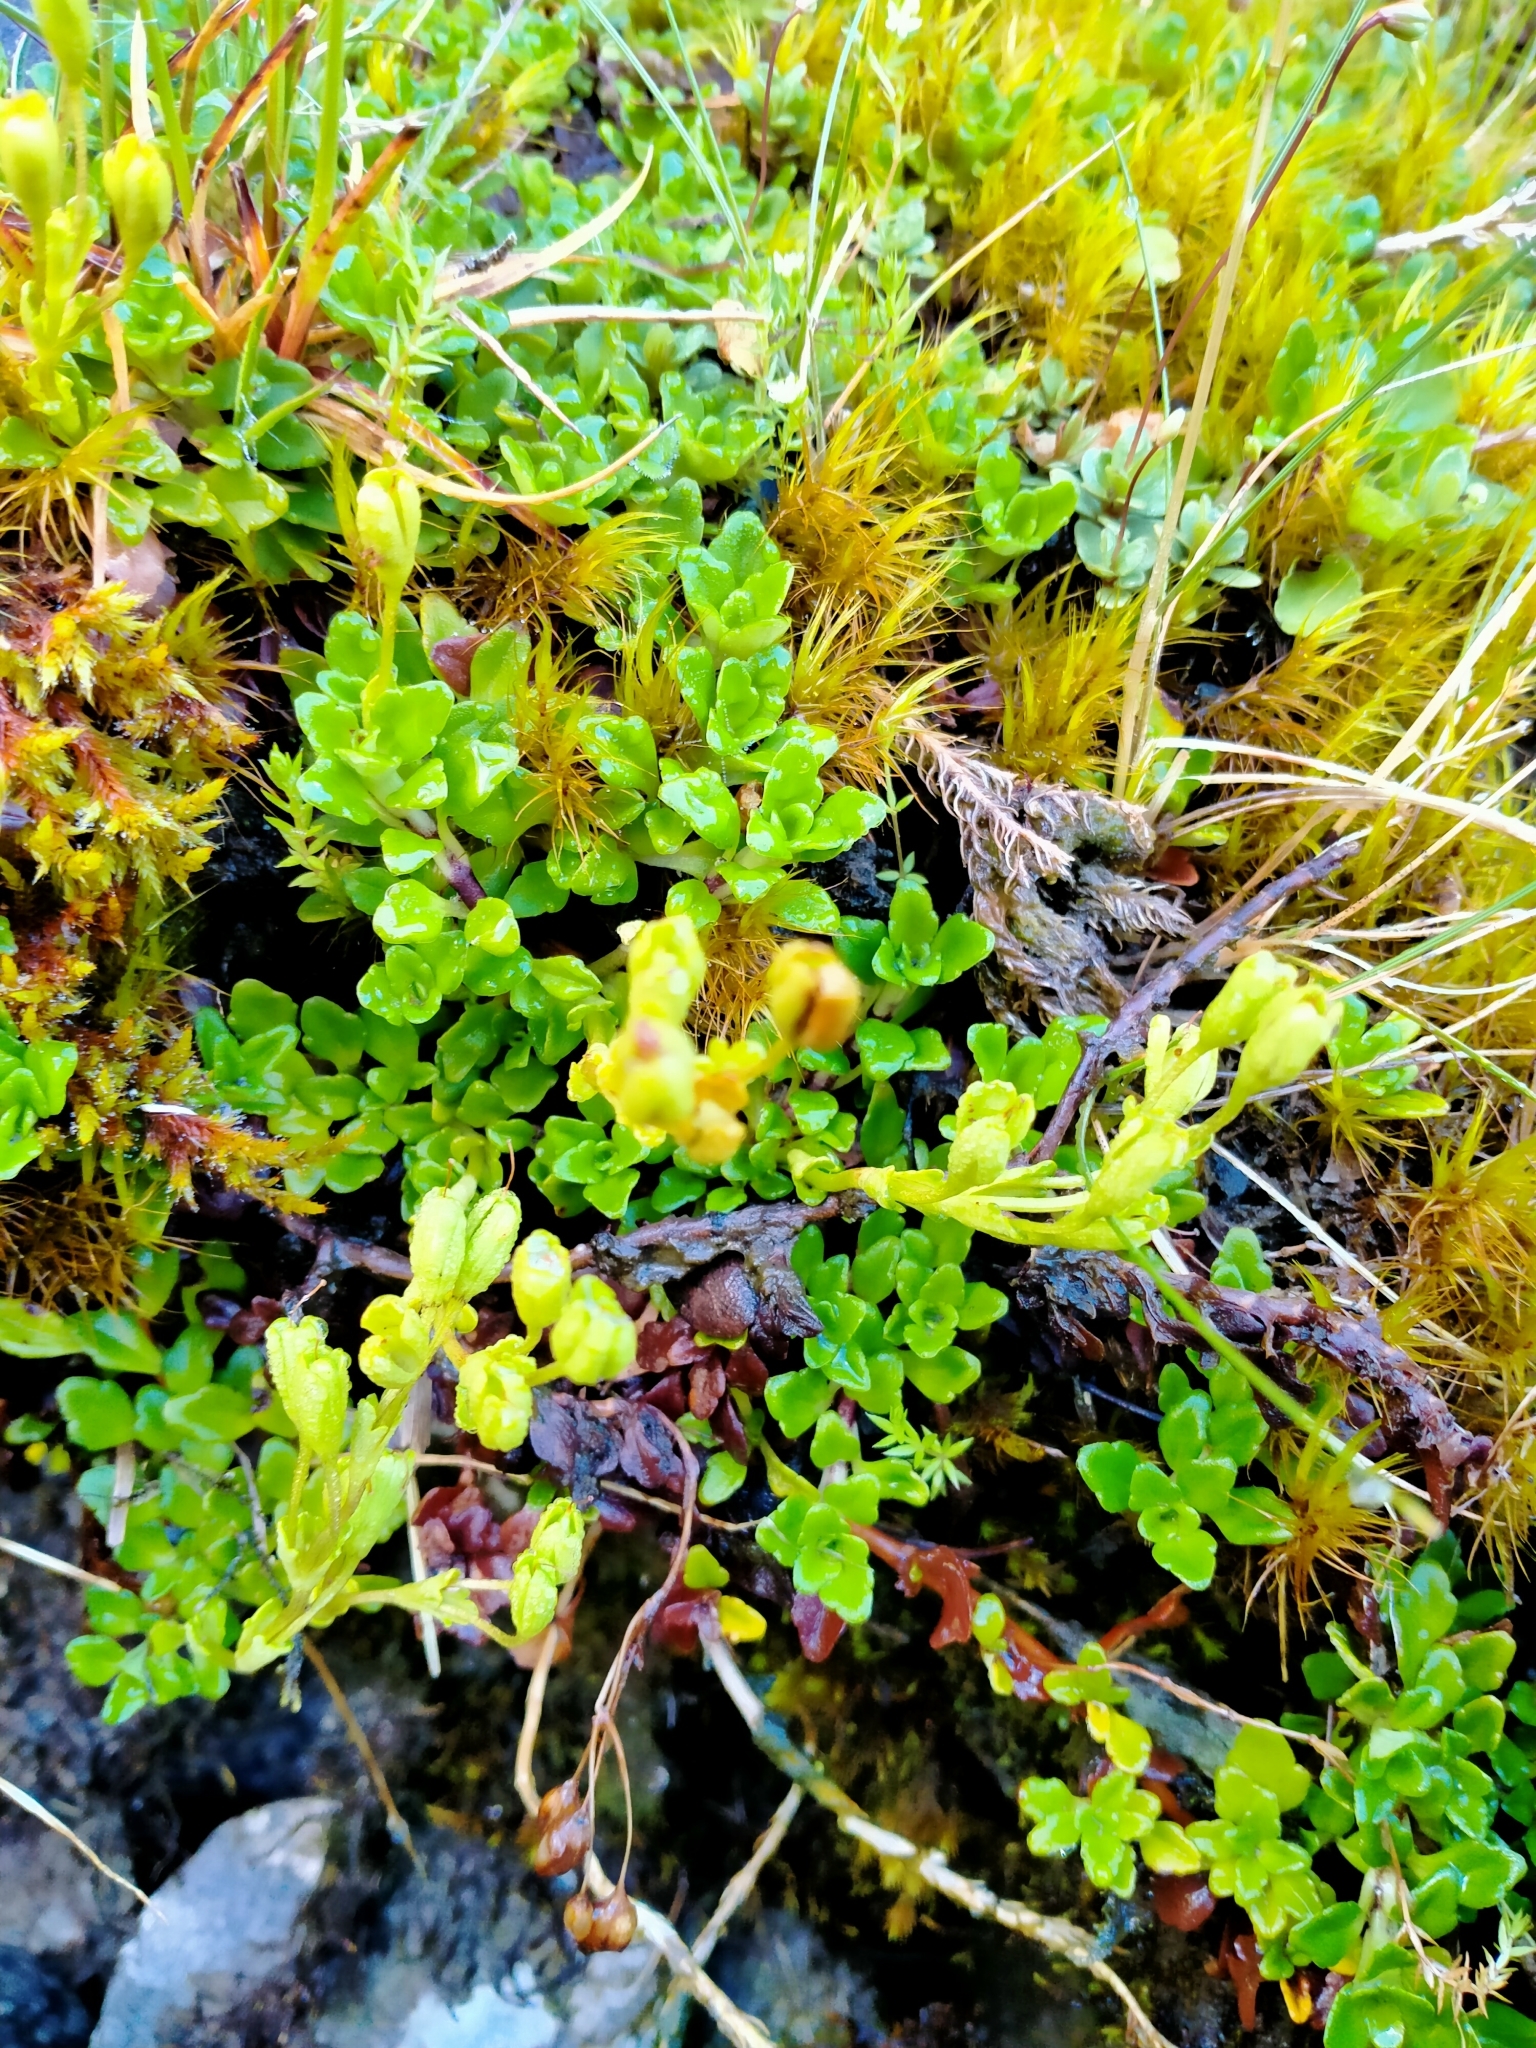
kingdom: Plantae
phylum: Tracheophyta
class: Magnoliopsida
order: Lamiales
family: Plantaginaceae
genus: Ourisia
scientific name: Ourisia caespitosa
